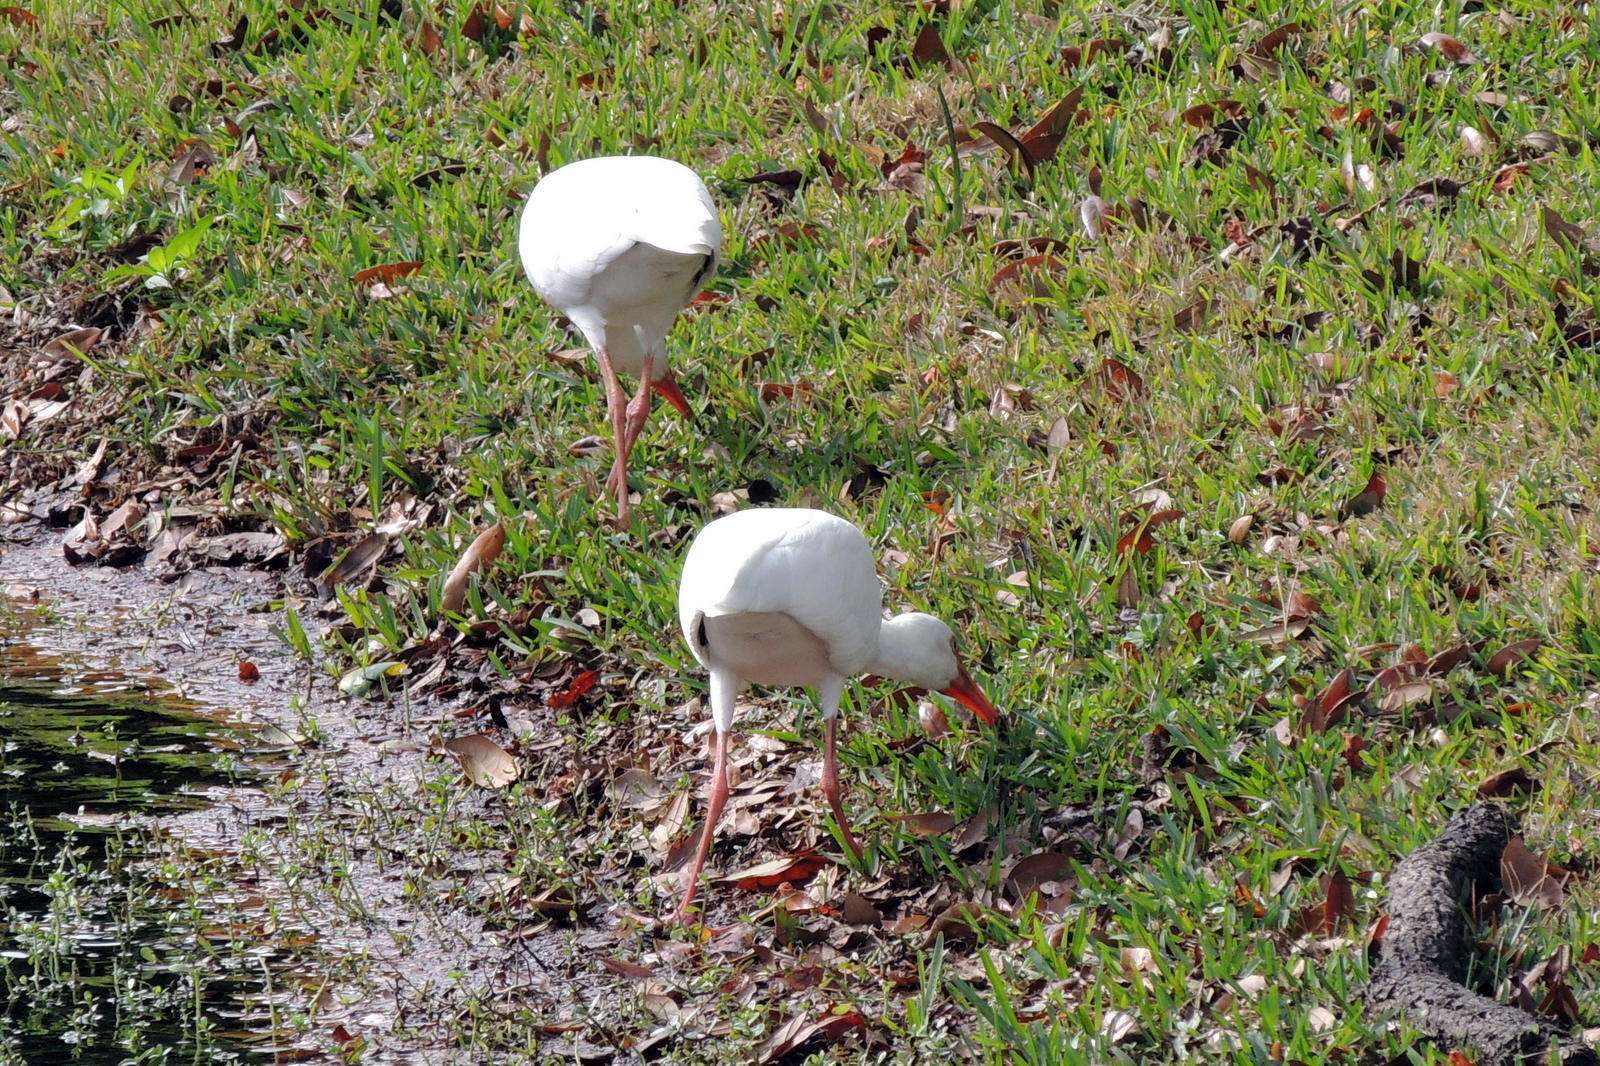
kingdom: Animalia
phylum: Chordata
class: Aves
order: Pelecaniformes
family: Threskiornithidae
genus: Eudocimus
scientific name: Eudocimus albus
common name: White ibis
